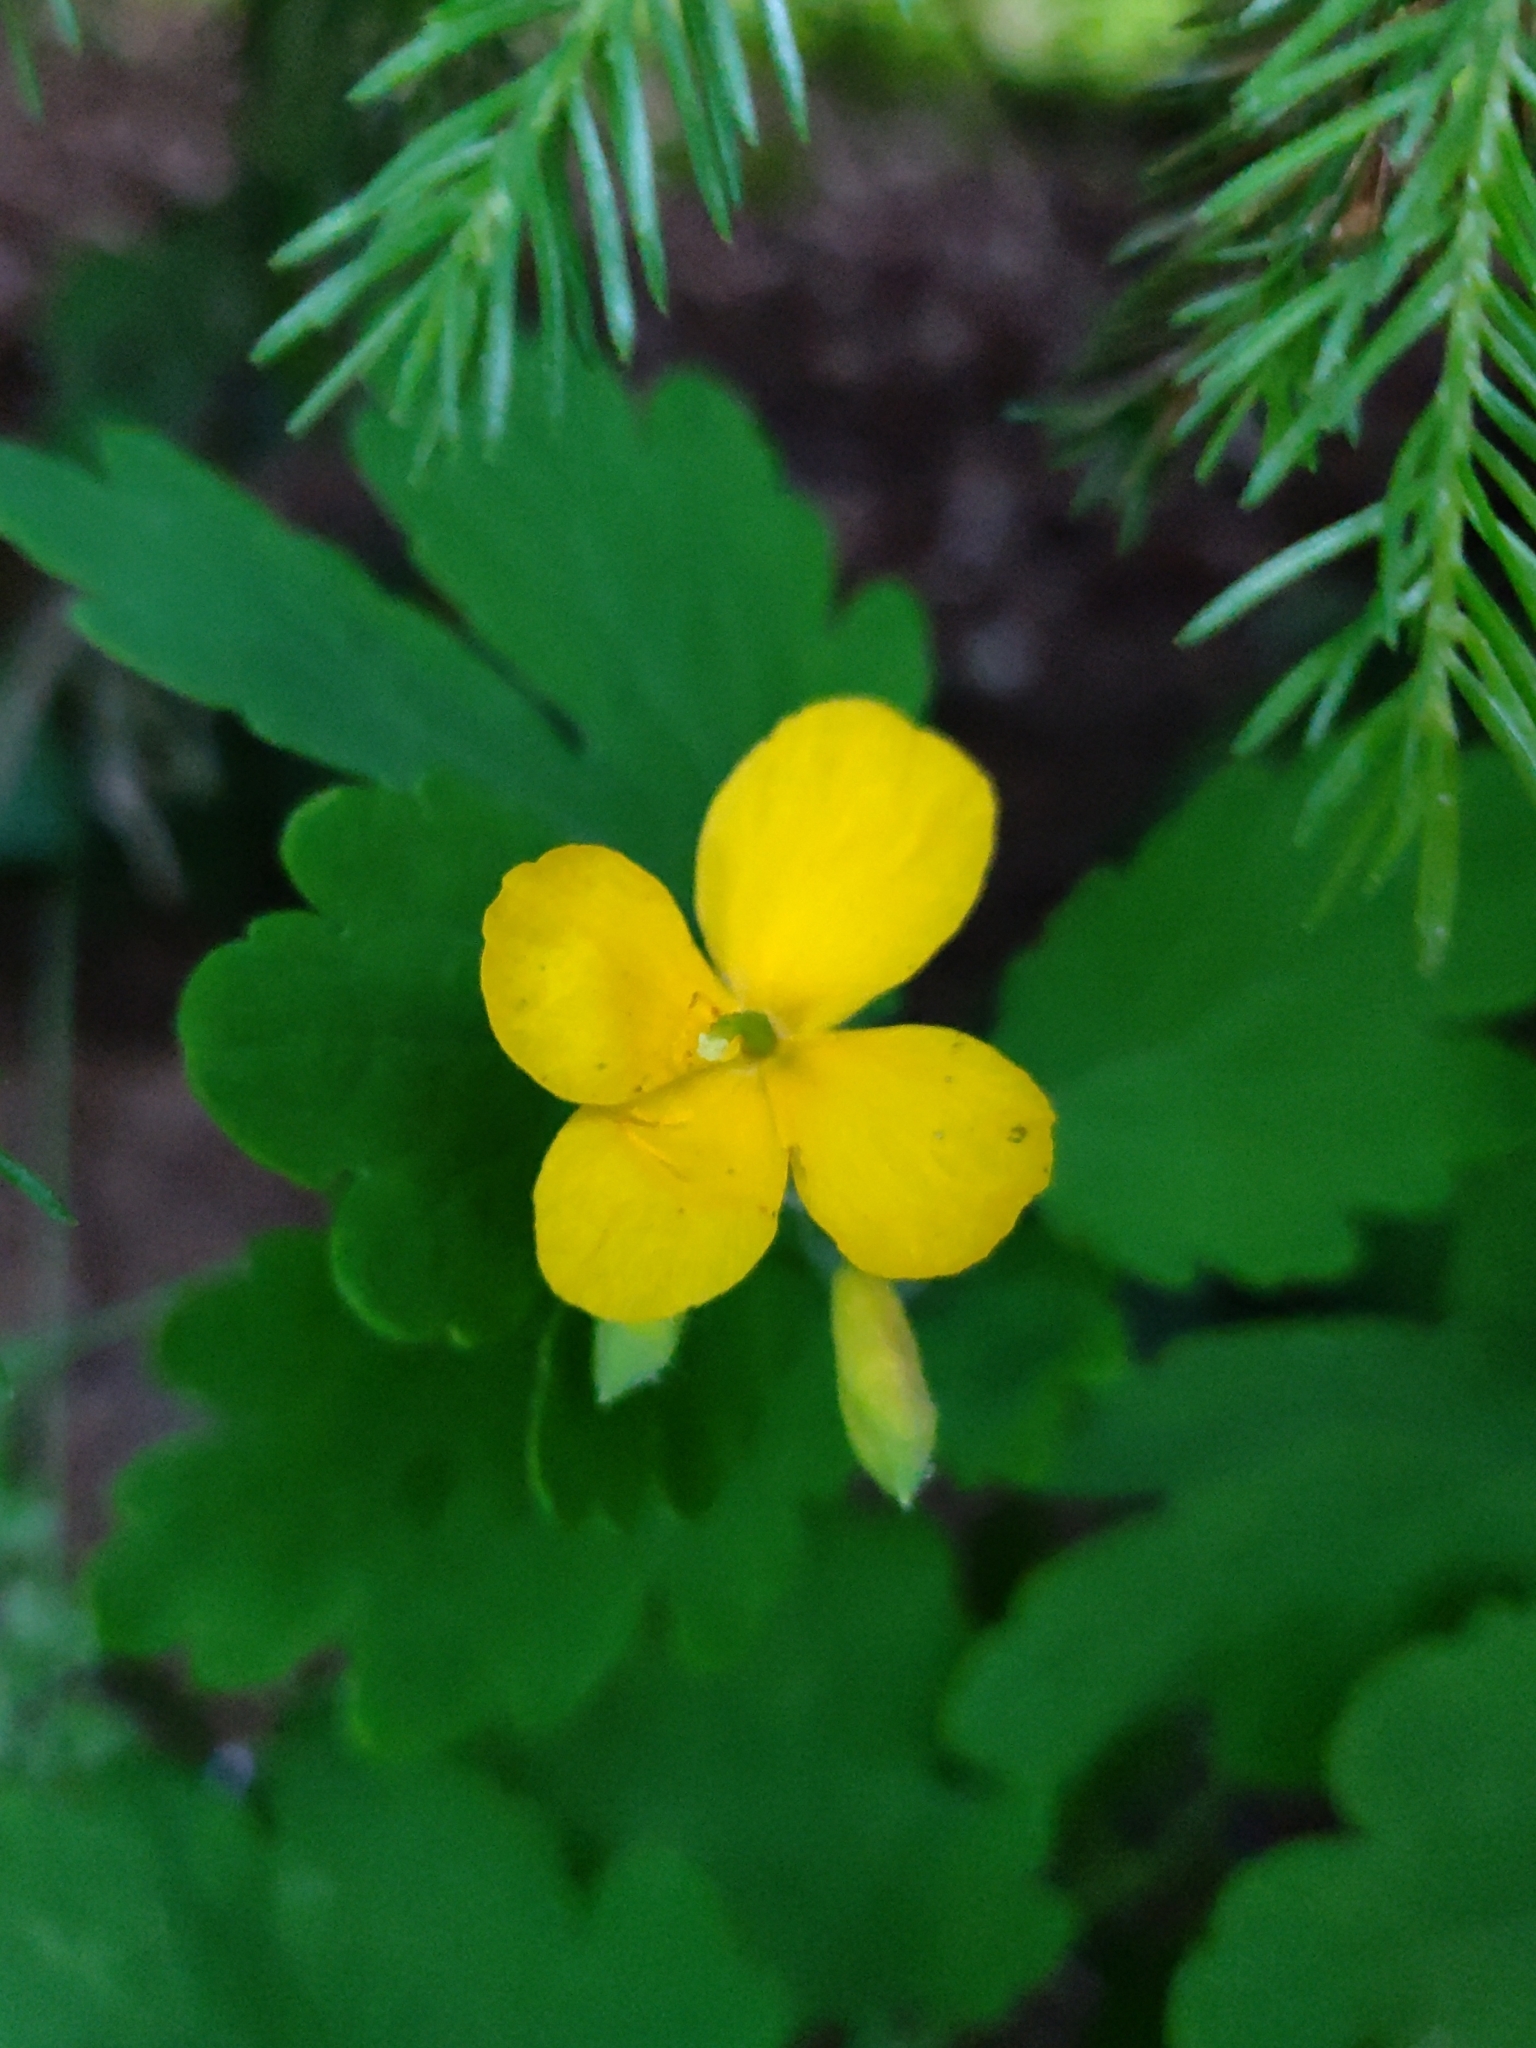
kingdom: Plantae
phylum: Tracheophyta
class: Magnoliopsida
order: Ranunculales
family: Papaveraceae
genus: Chelidonium
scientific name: Chelidonium majus
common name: Greater celandine
